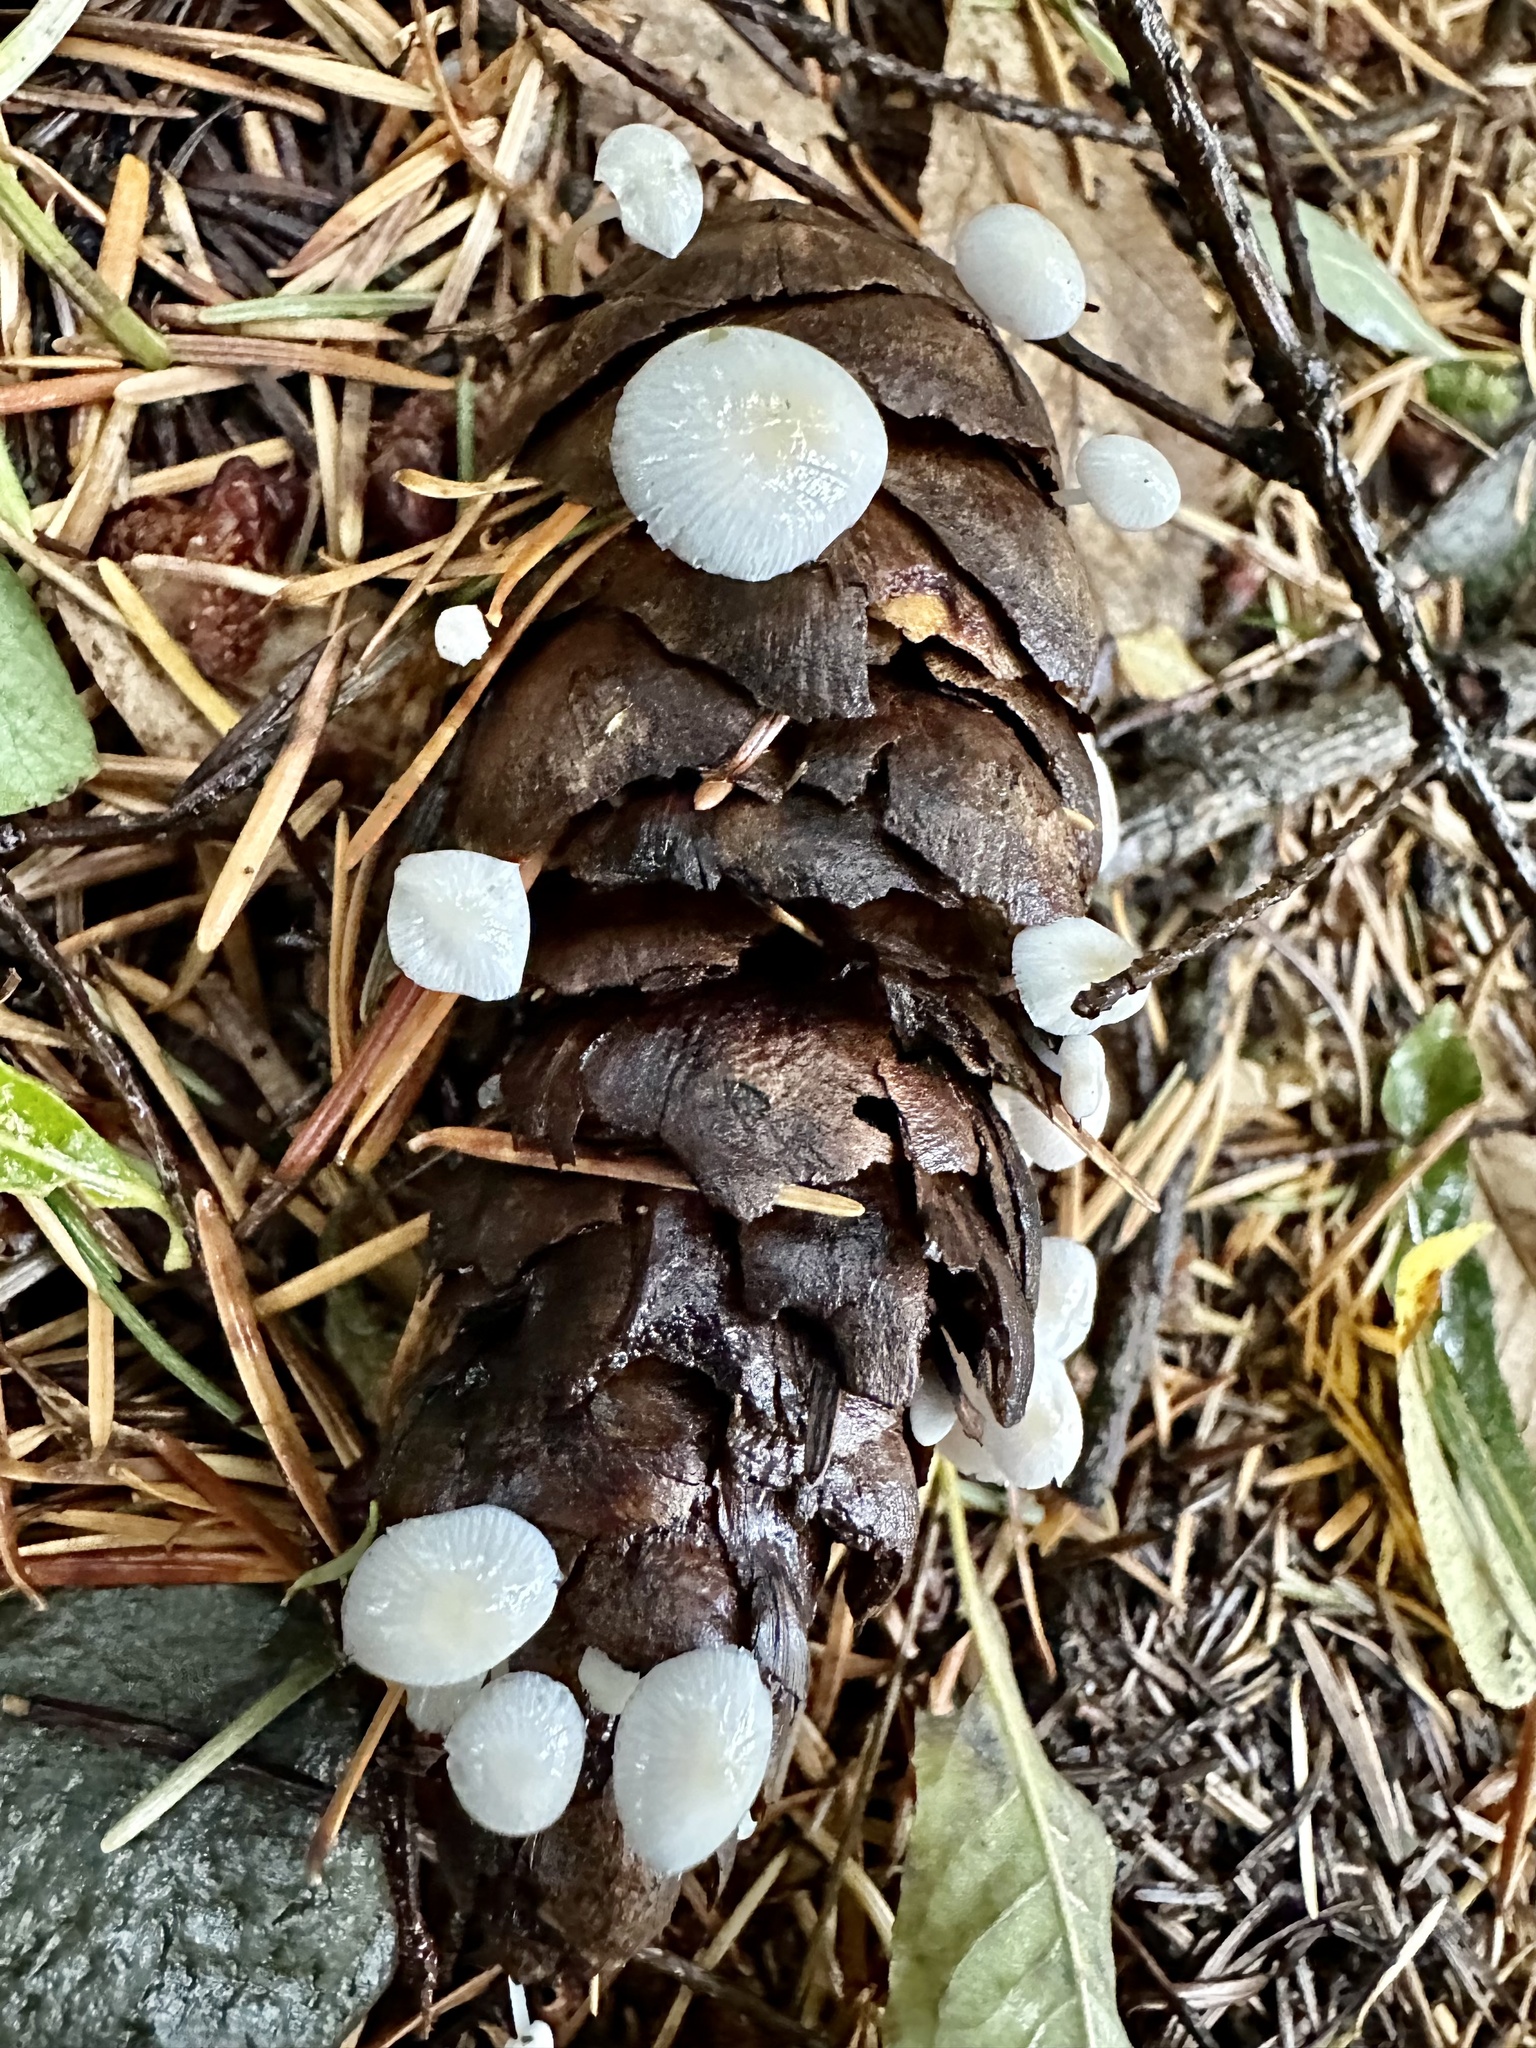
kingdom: Fungi
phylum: Basidiomycota
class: Agaricomycetes
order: Agaricales
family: Physalacriaceae
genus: Strobilurus
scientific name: Strobilurus trullisatus
